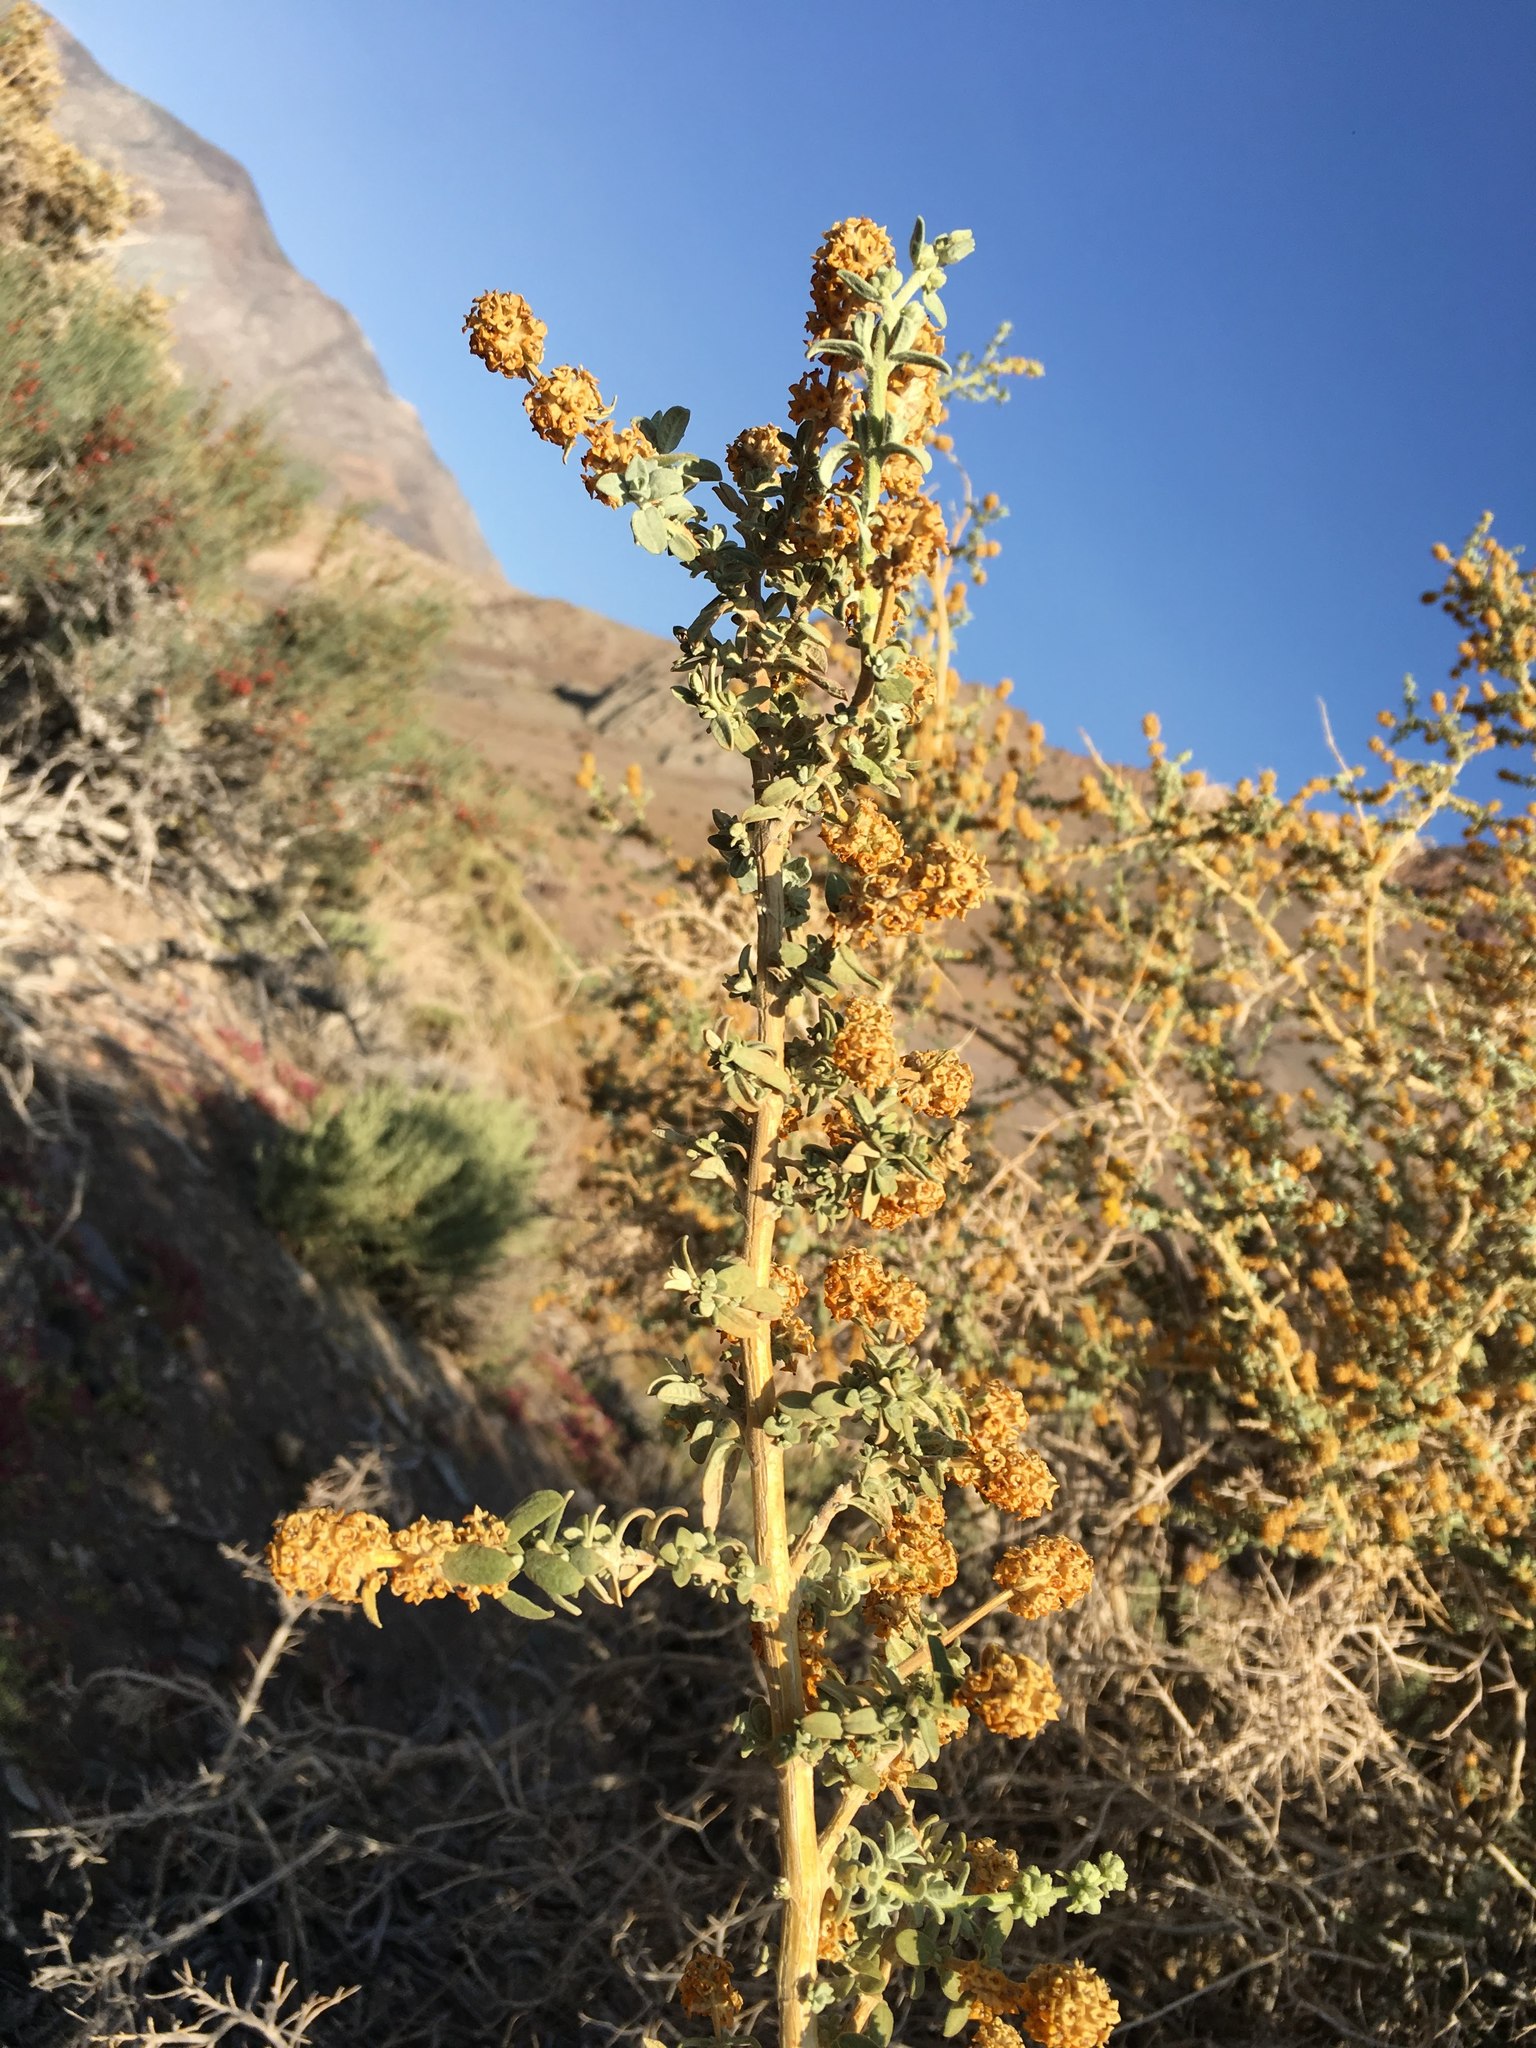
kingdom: Plantae
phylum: Tracheophyta
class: Magnoliopsida
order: Lamiales
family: Scrophulariaceae
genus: Buddleja
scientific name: Buddleja suaveolens
